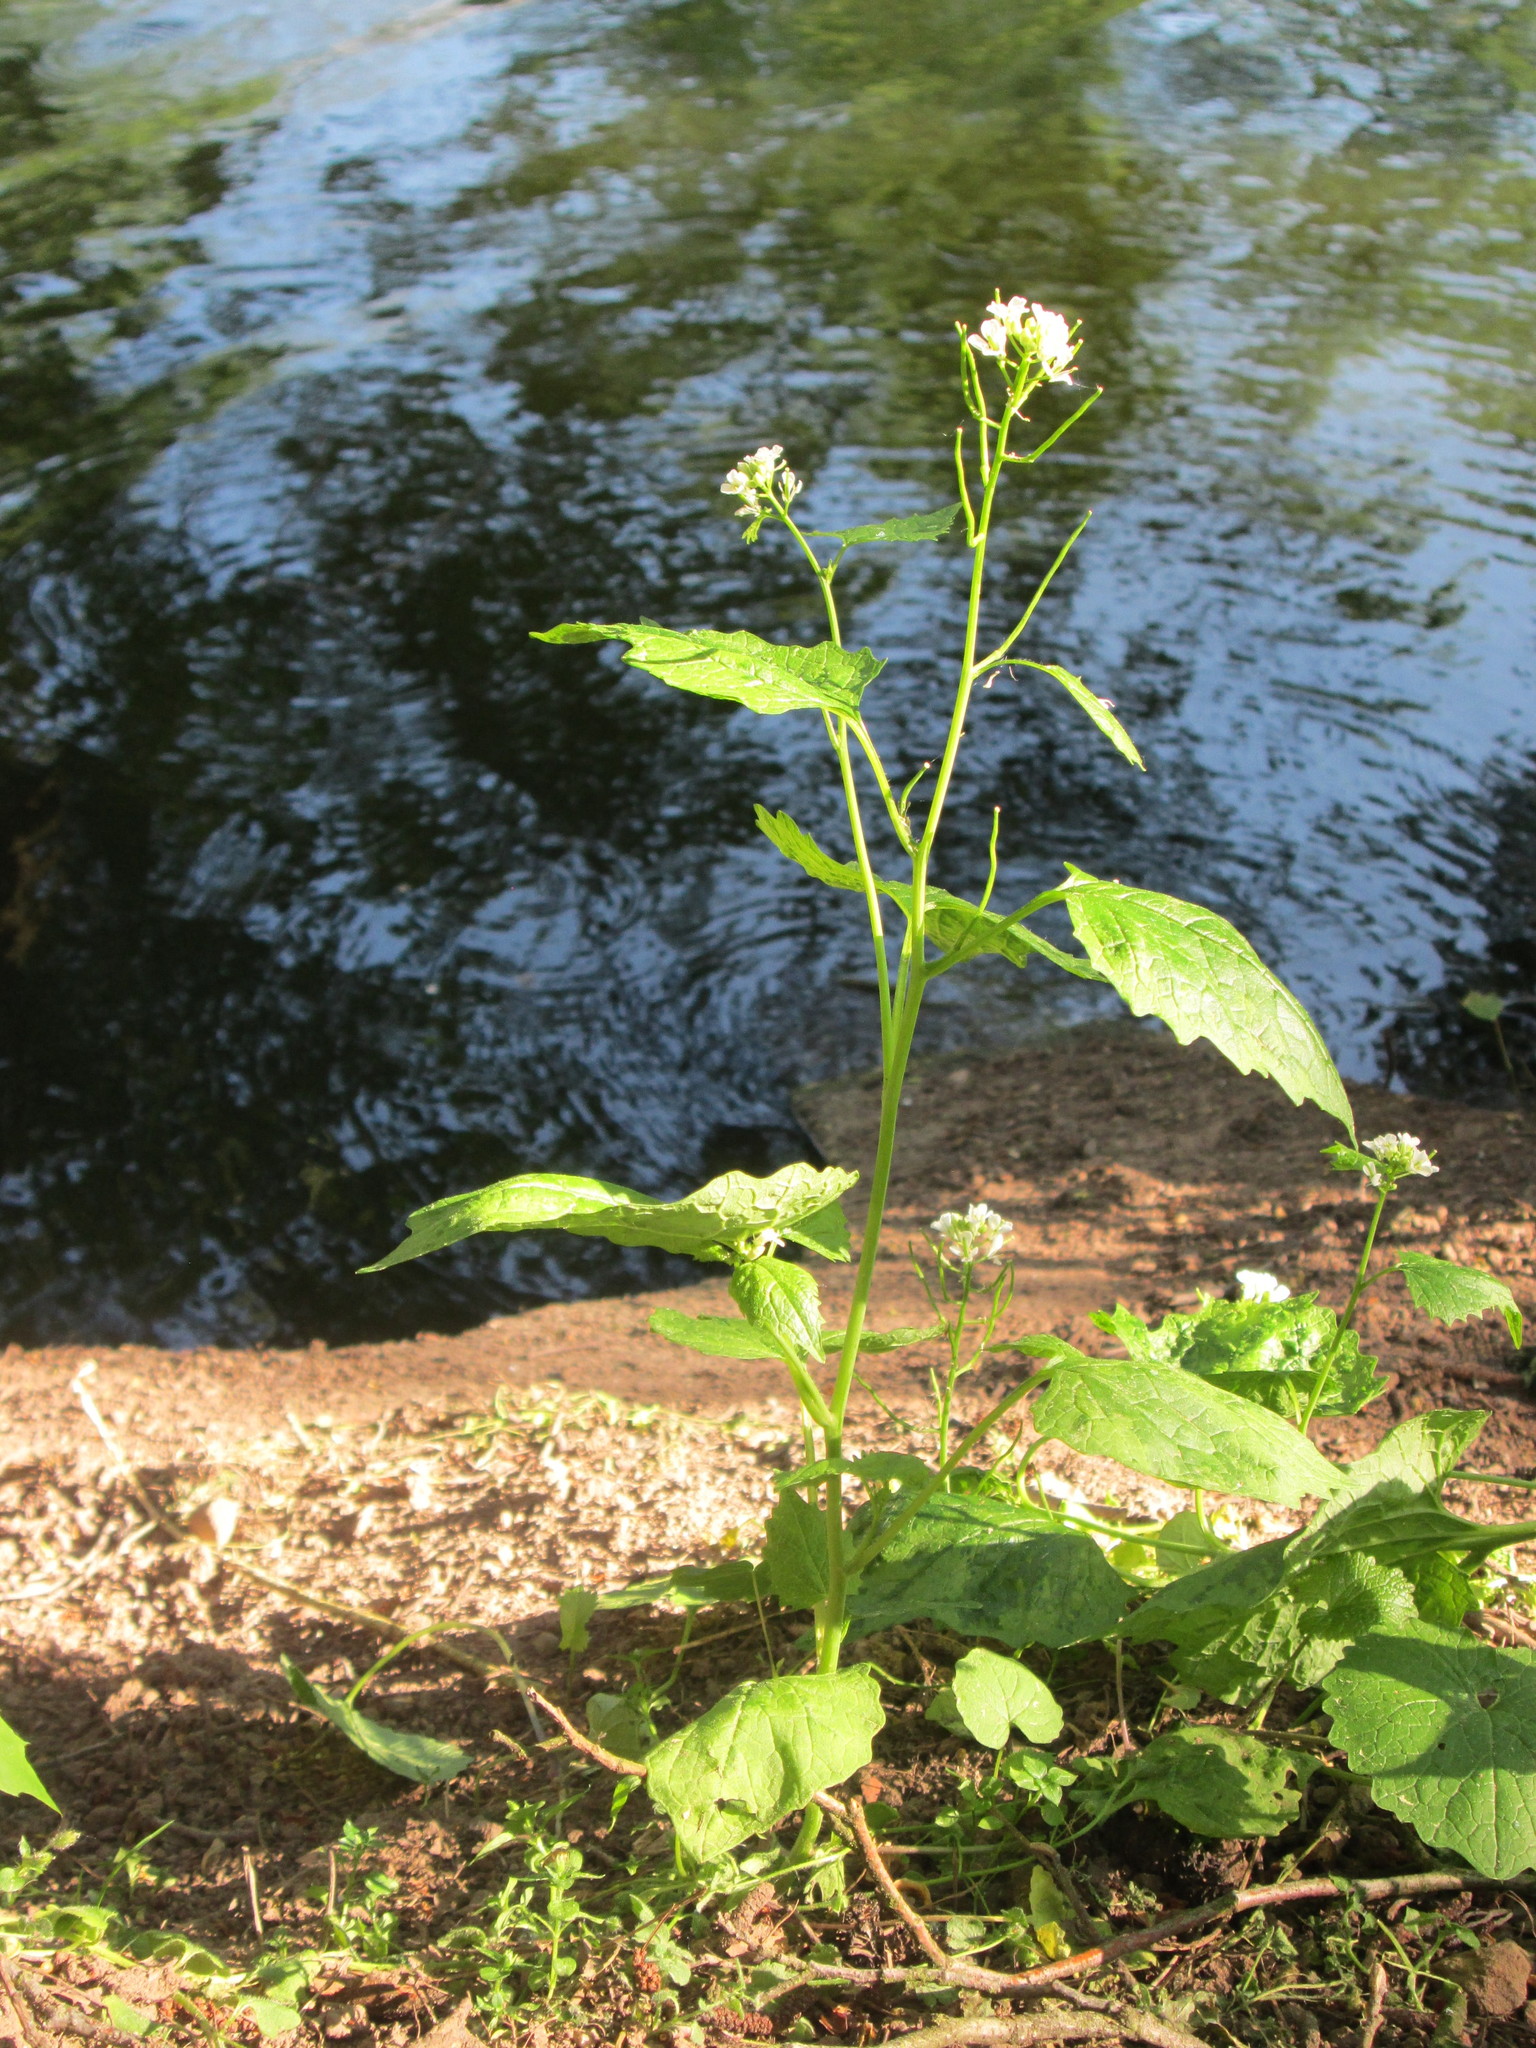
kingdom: Plantae
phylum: Tracheophyta
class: Magnoliopsida
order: Brassicales
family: Brassicaceae
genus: Alliaria
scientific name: Alliaria petiolata
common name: Garlic mustard
